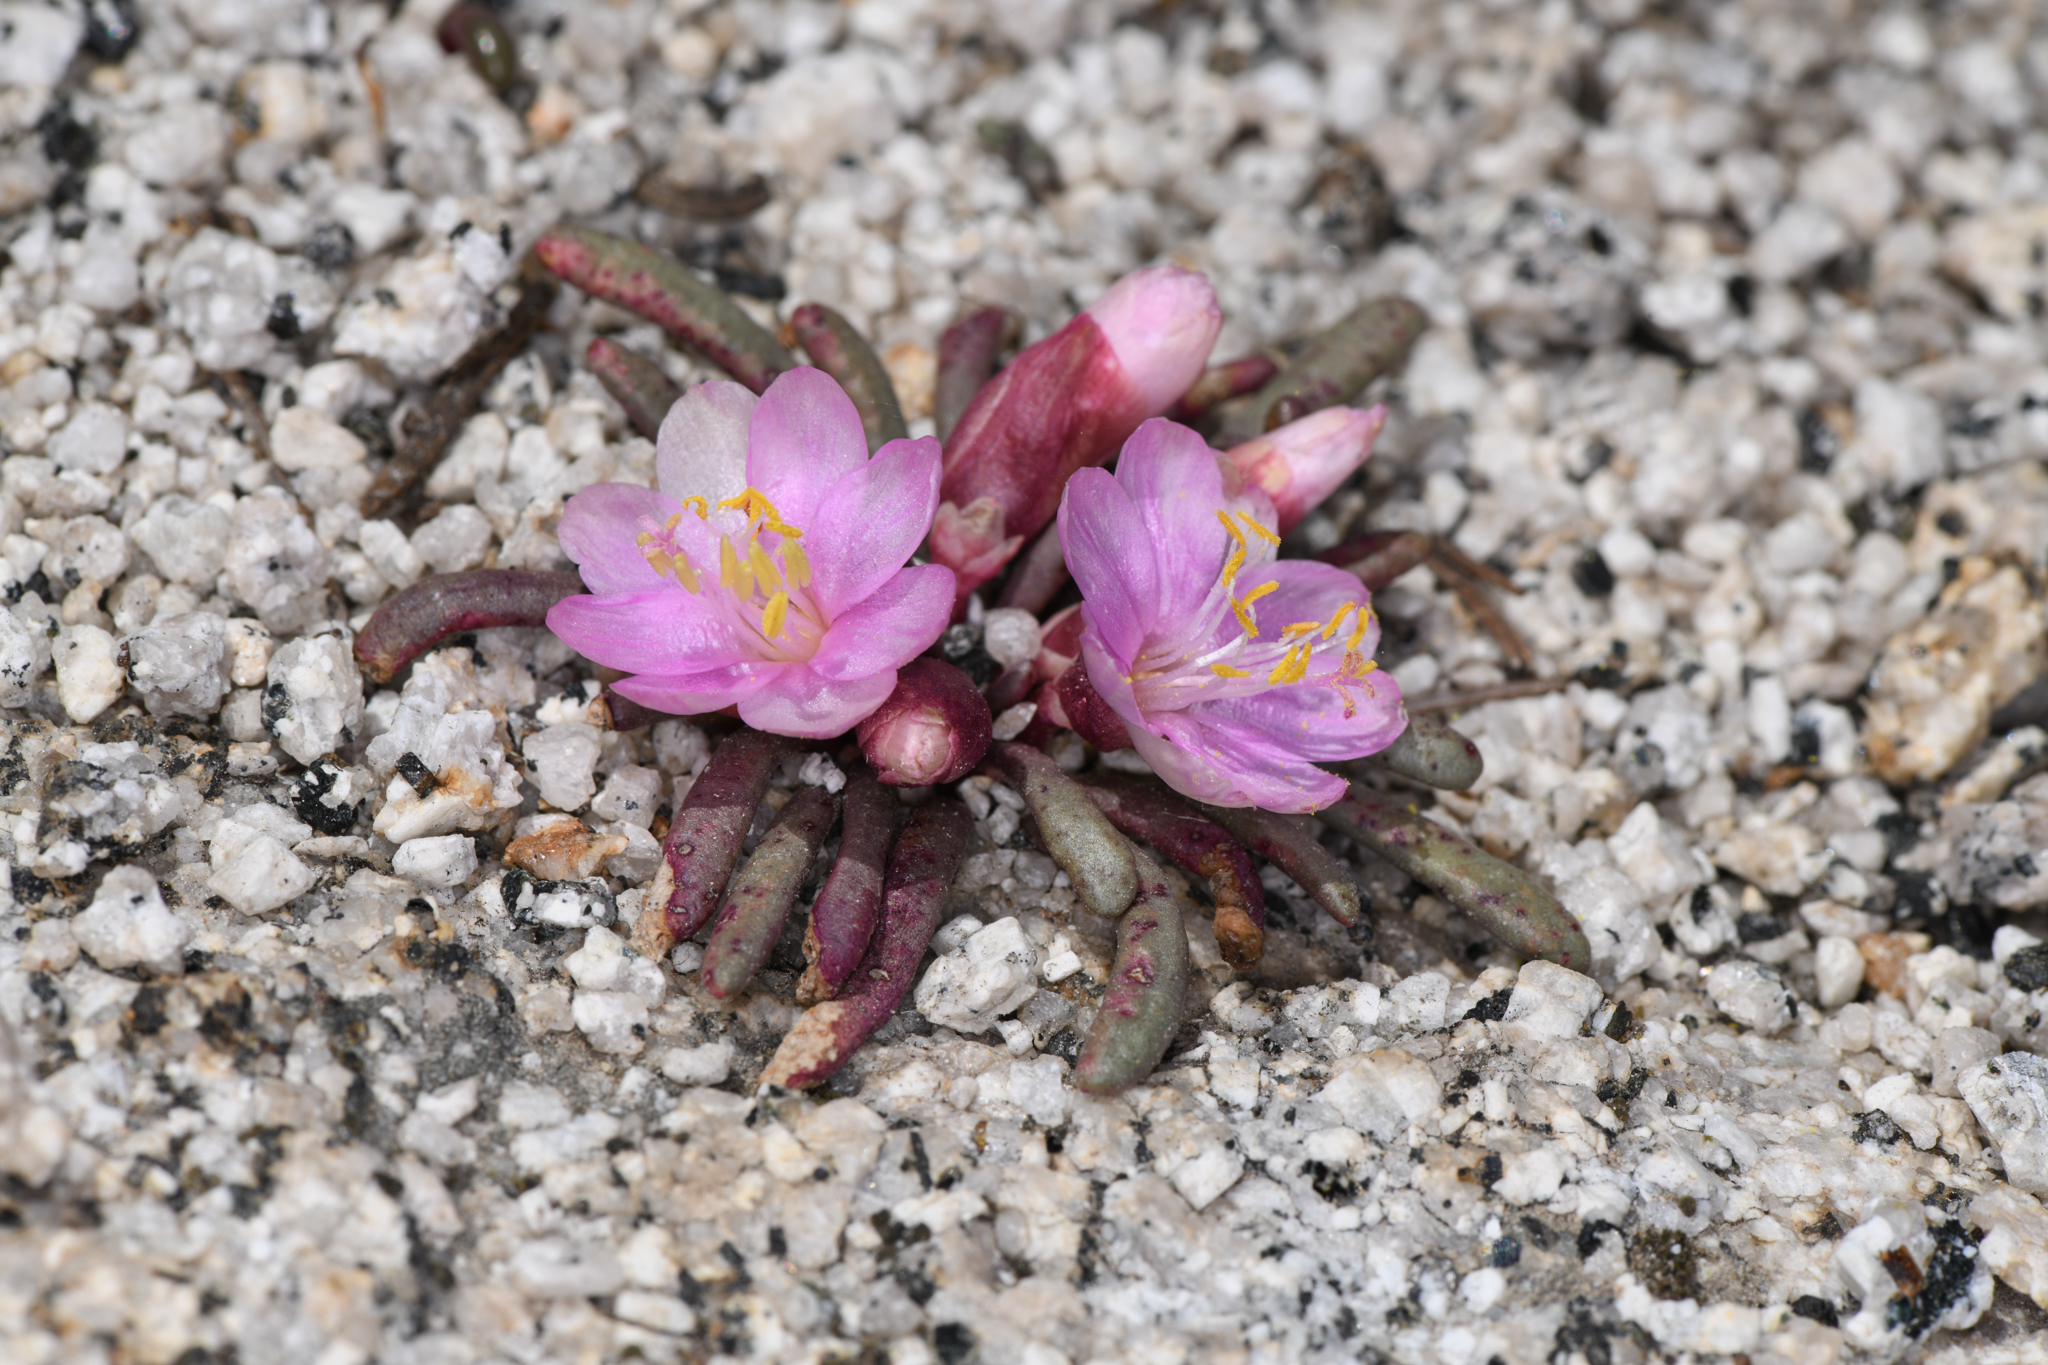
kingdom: Plantae
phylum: Tracheophyta
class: Magnoliopsida
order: Caryophyllales
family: Montiaceae
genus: Lewisia
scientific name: Lewisia disepala
